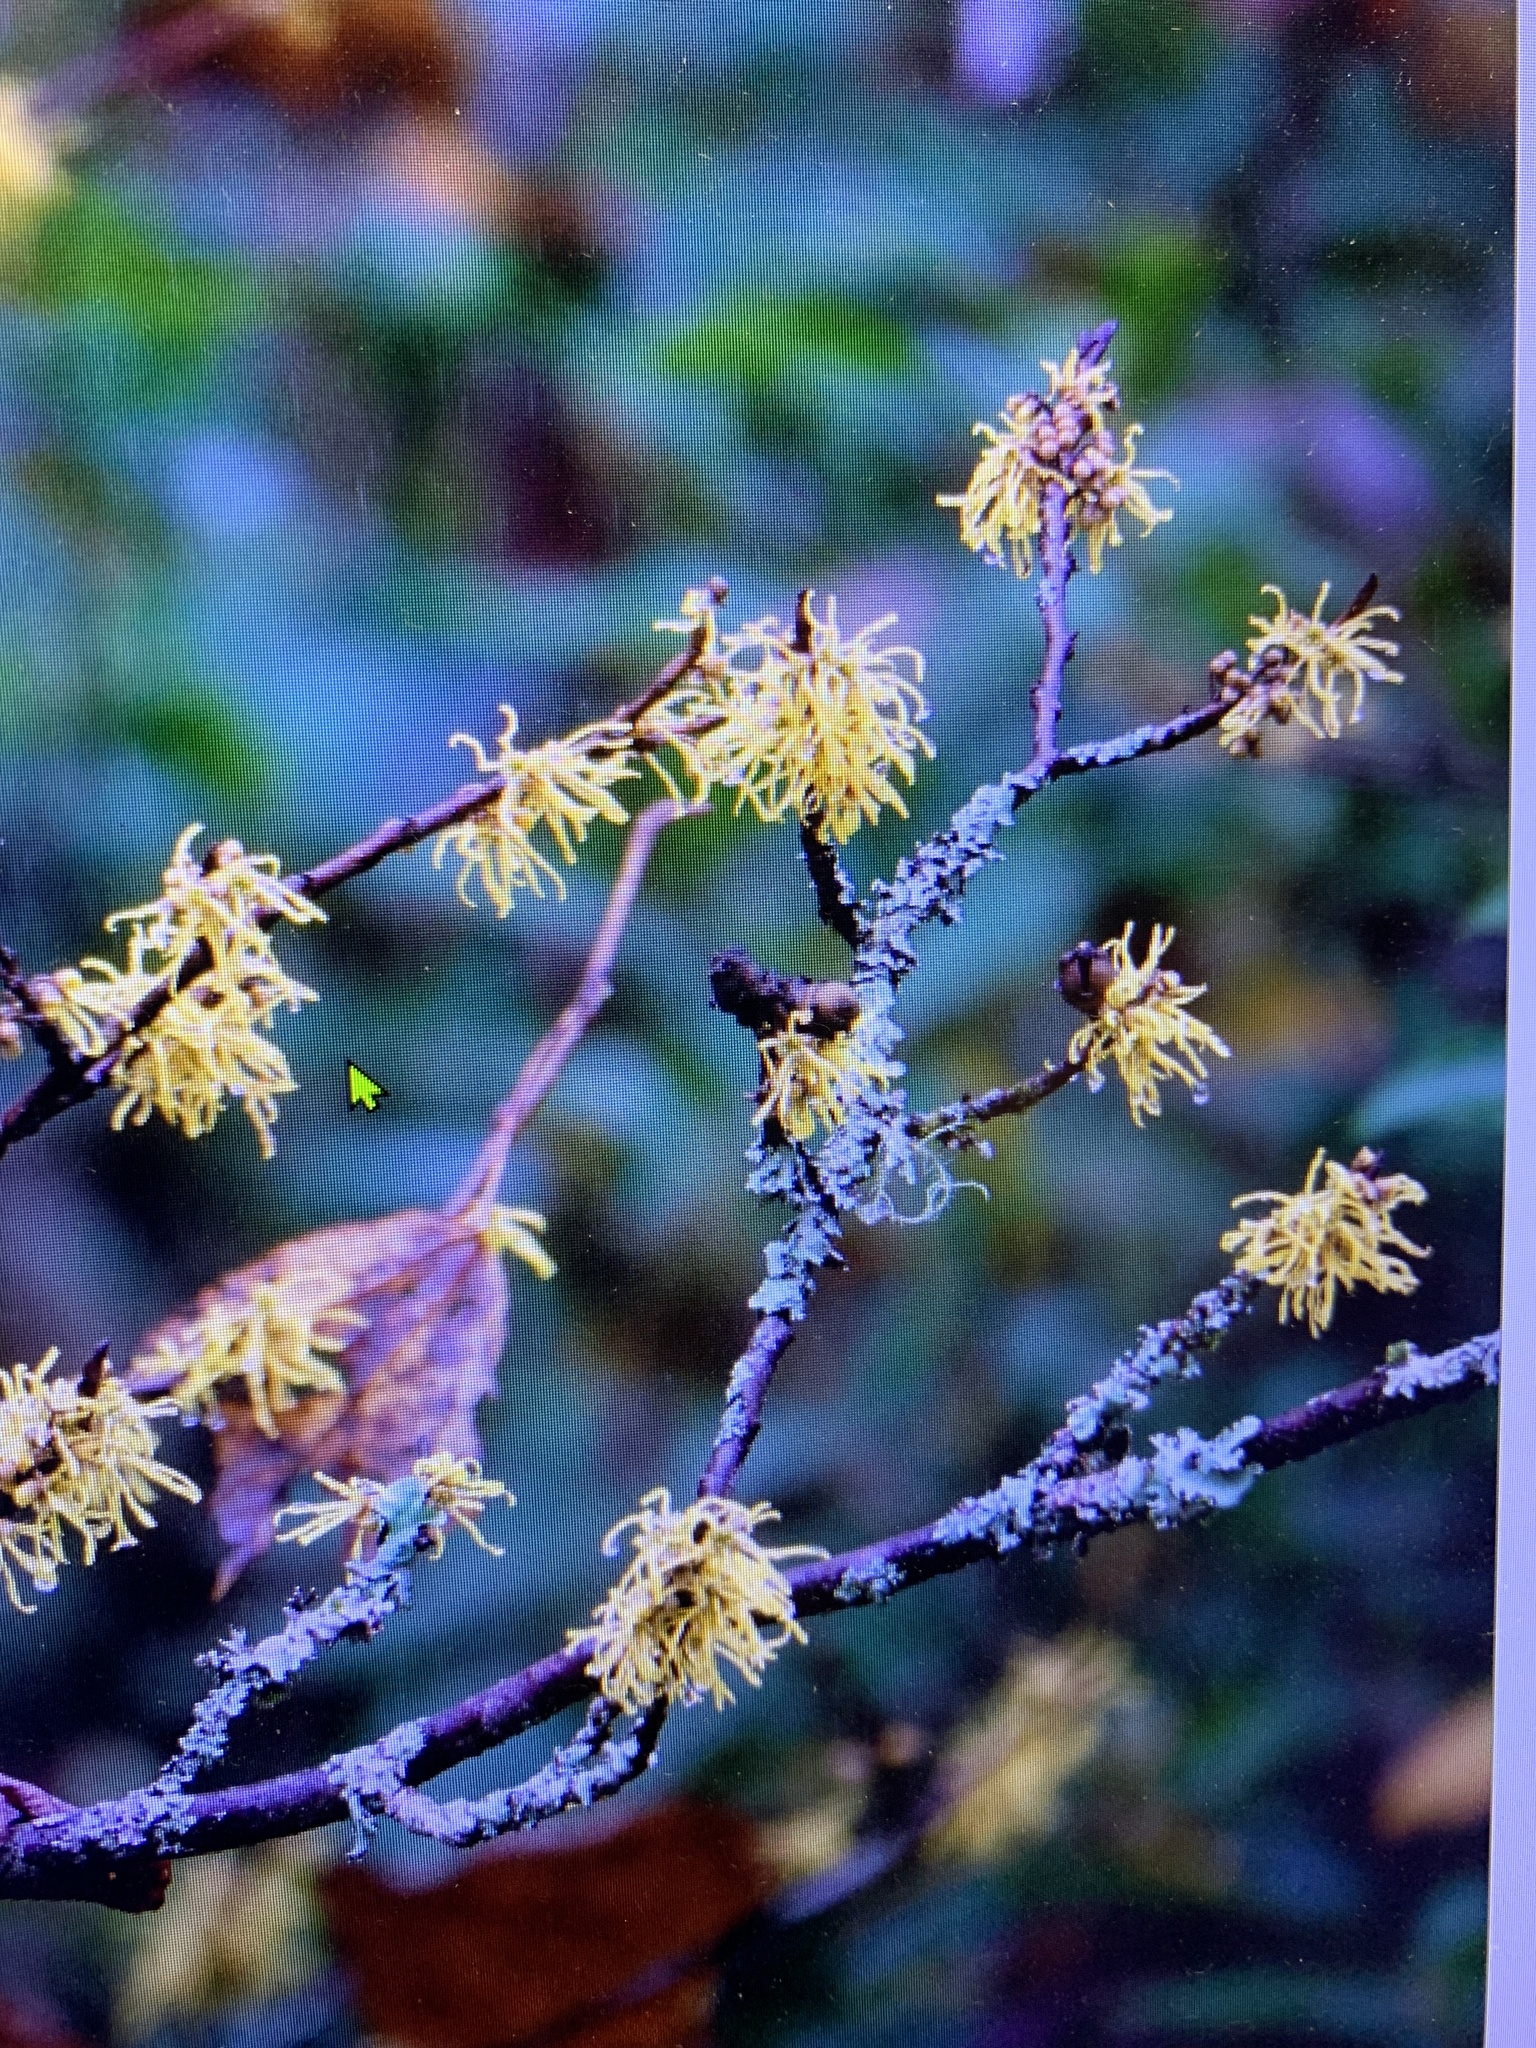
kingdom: Plantae
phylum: Tracheophyta
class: Magnoliopsida
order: Saxifragales
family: Hamamelidaceae
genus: Hamamelis
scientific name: Hamamelis virginiana
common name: Witch-hazel
